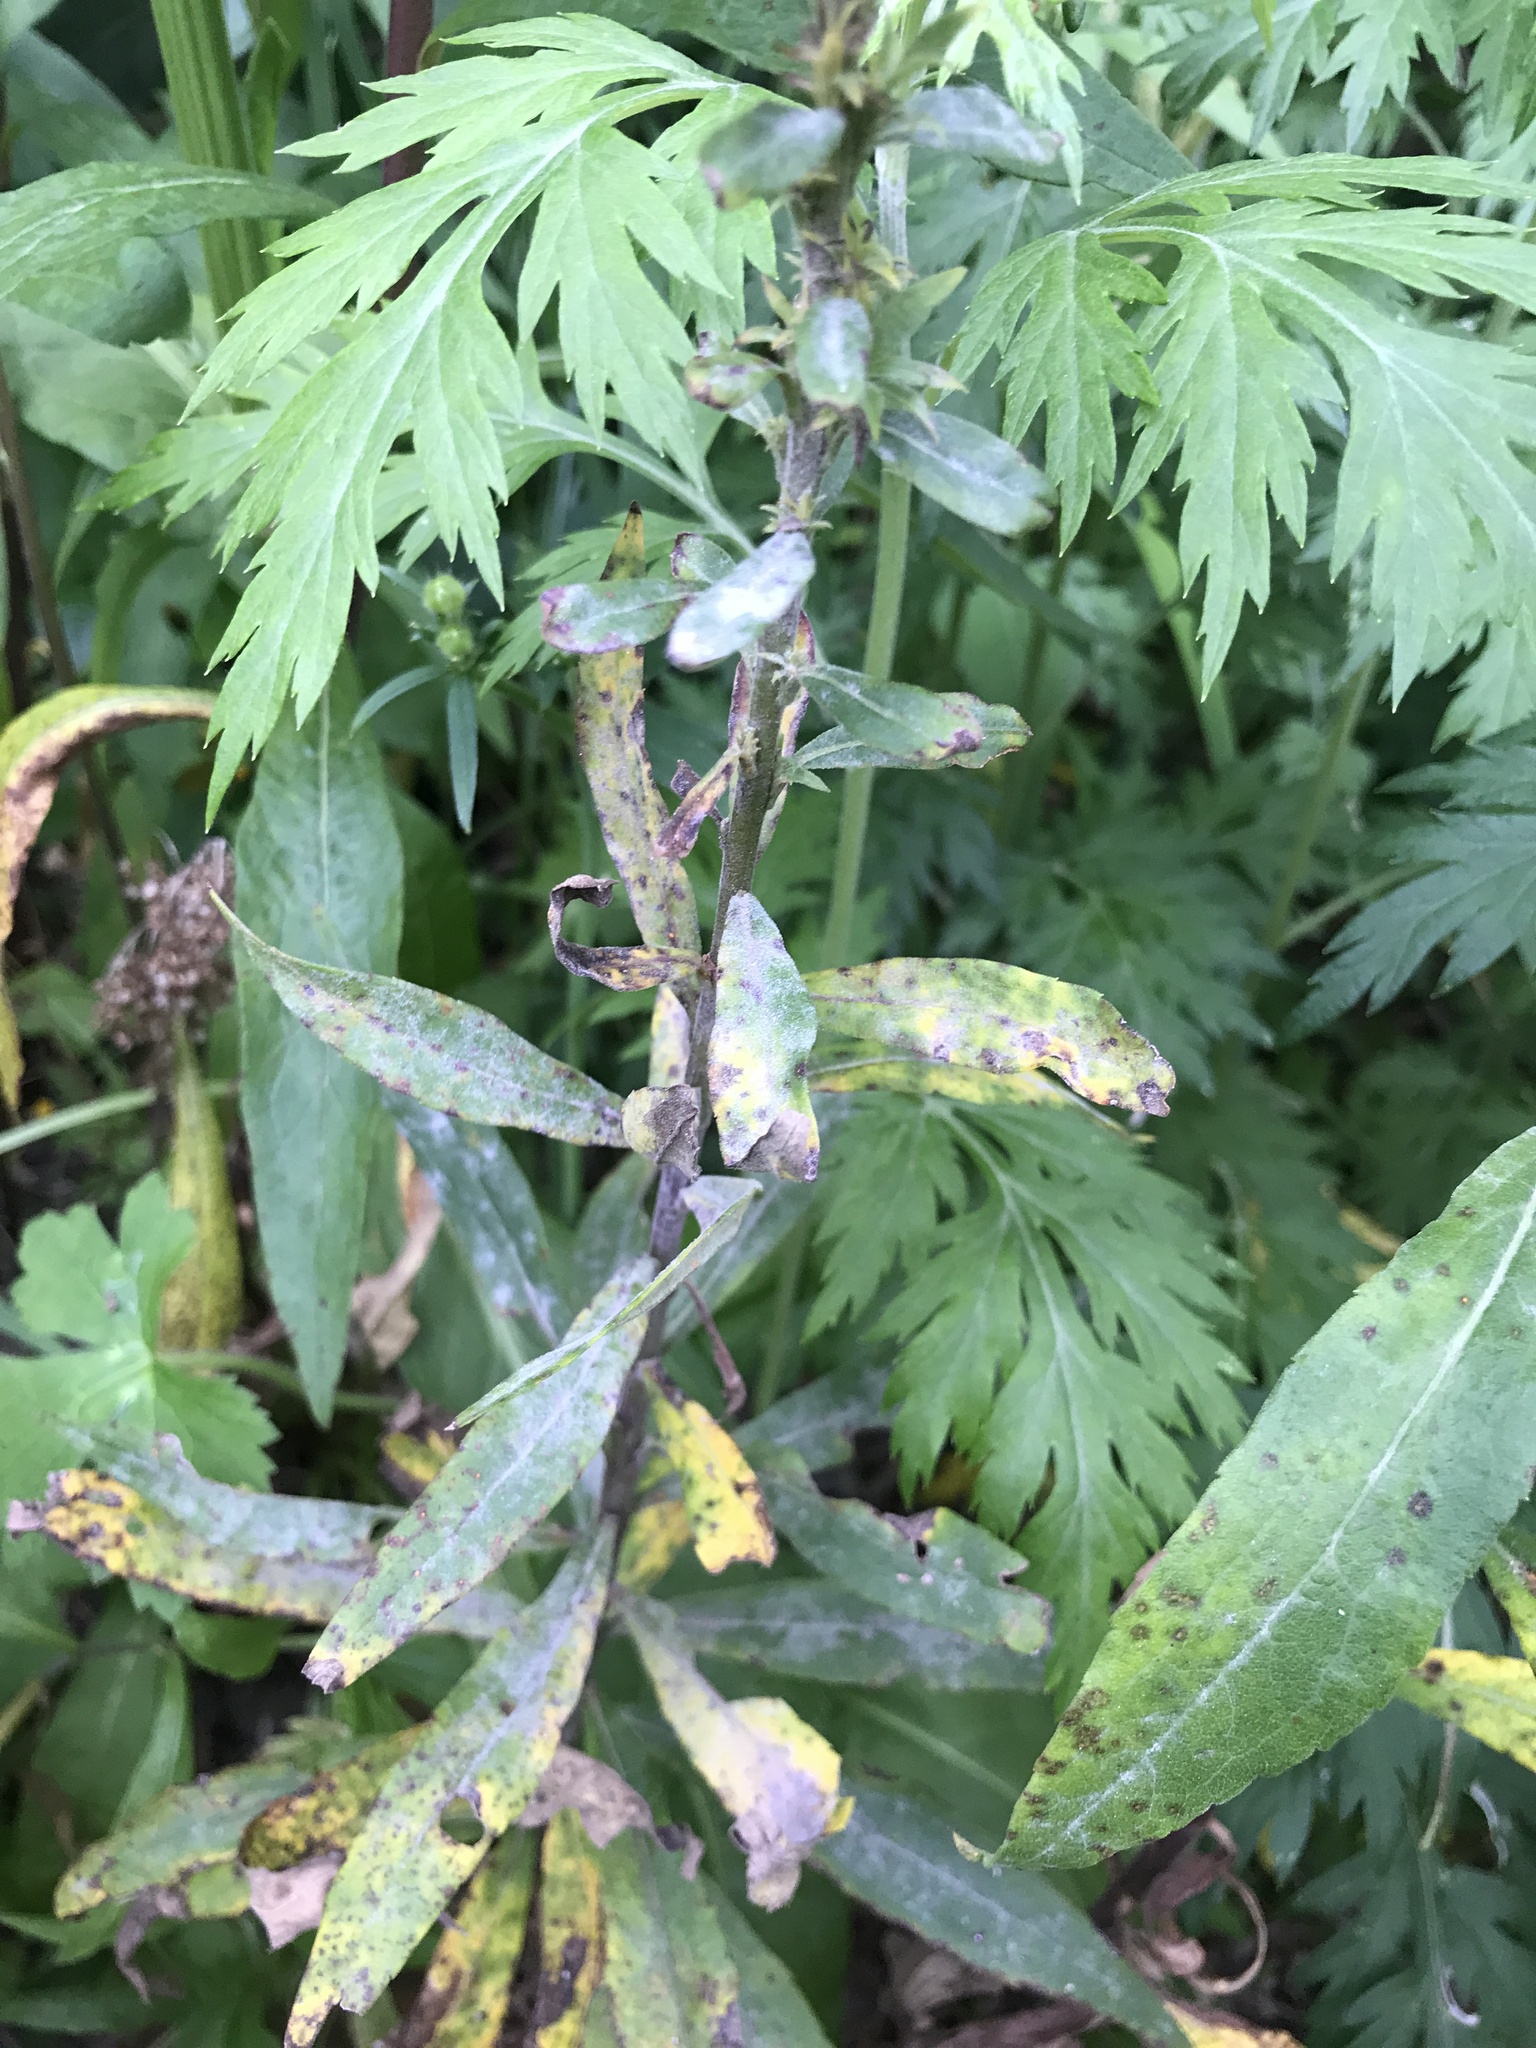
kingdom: Plantae
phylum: Tracheophyta
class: Magnoliopsida
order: Asterales
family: Asteraceae
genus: Solidago
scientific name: Solidago altissima
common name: Late goldenrod
